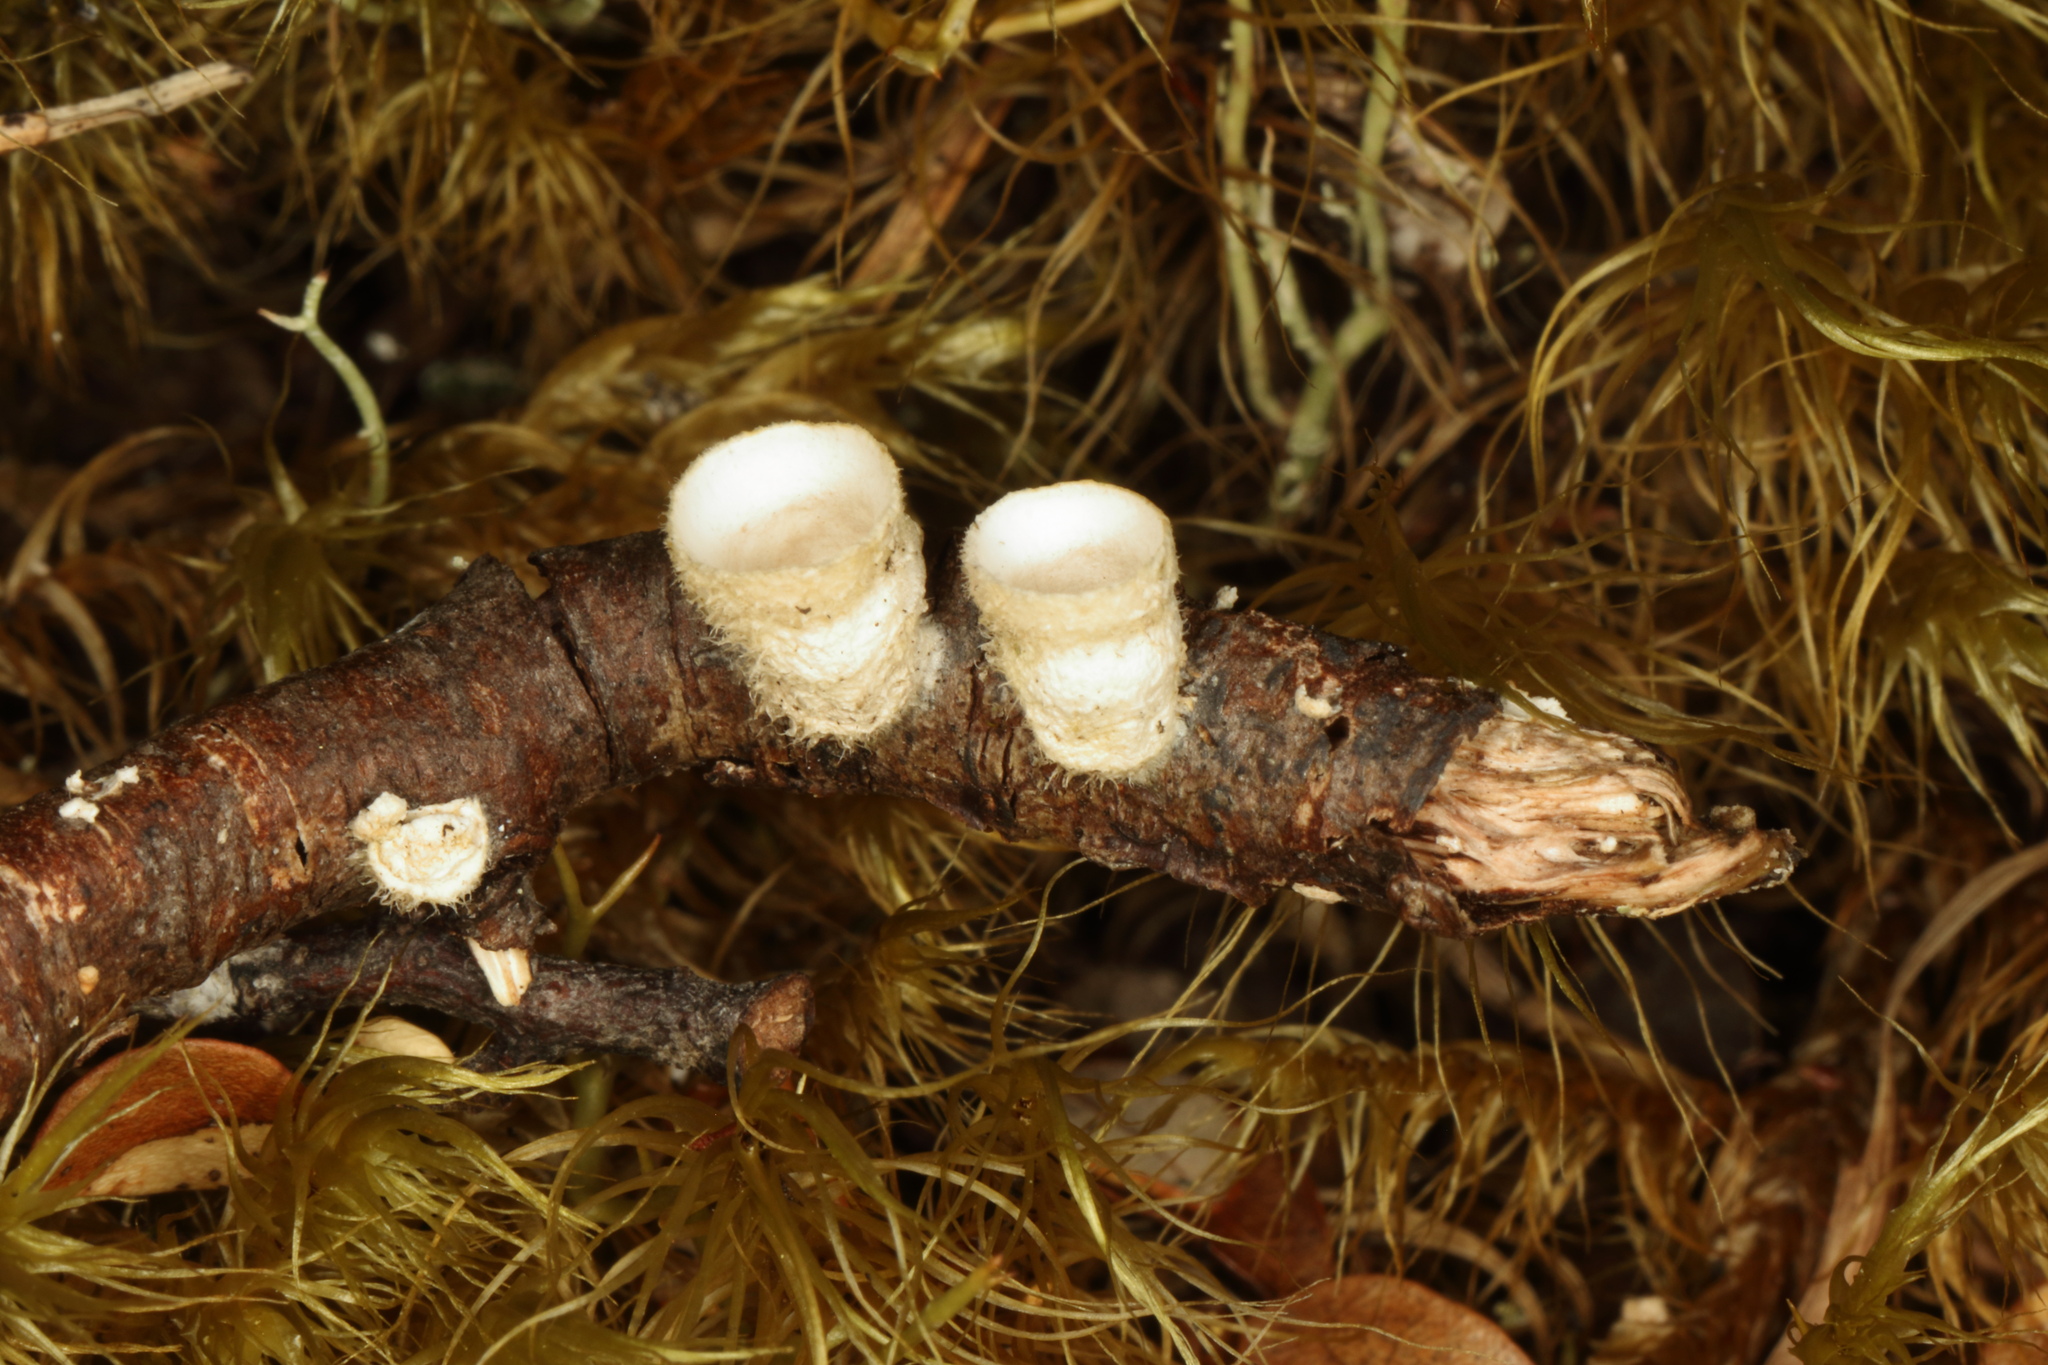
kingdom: Fungi
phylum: Basidiomycota
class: Agaricomycetes
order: Agaricales
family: Agaricaceae
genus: Nidula
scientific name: Nidula niveotomentosa
